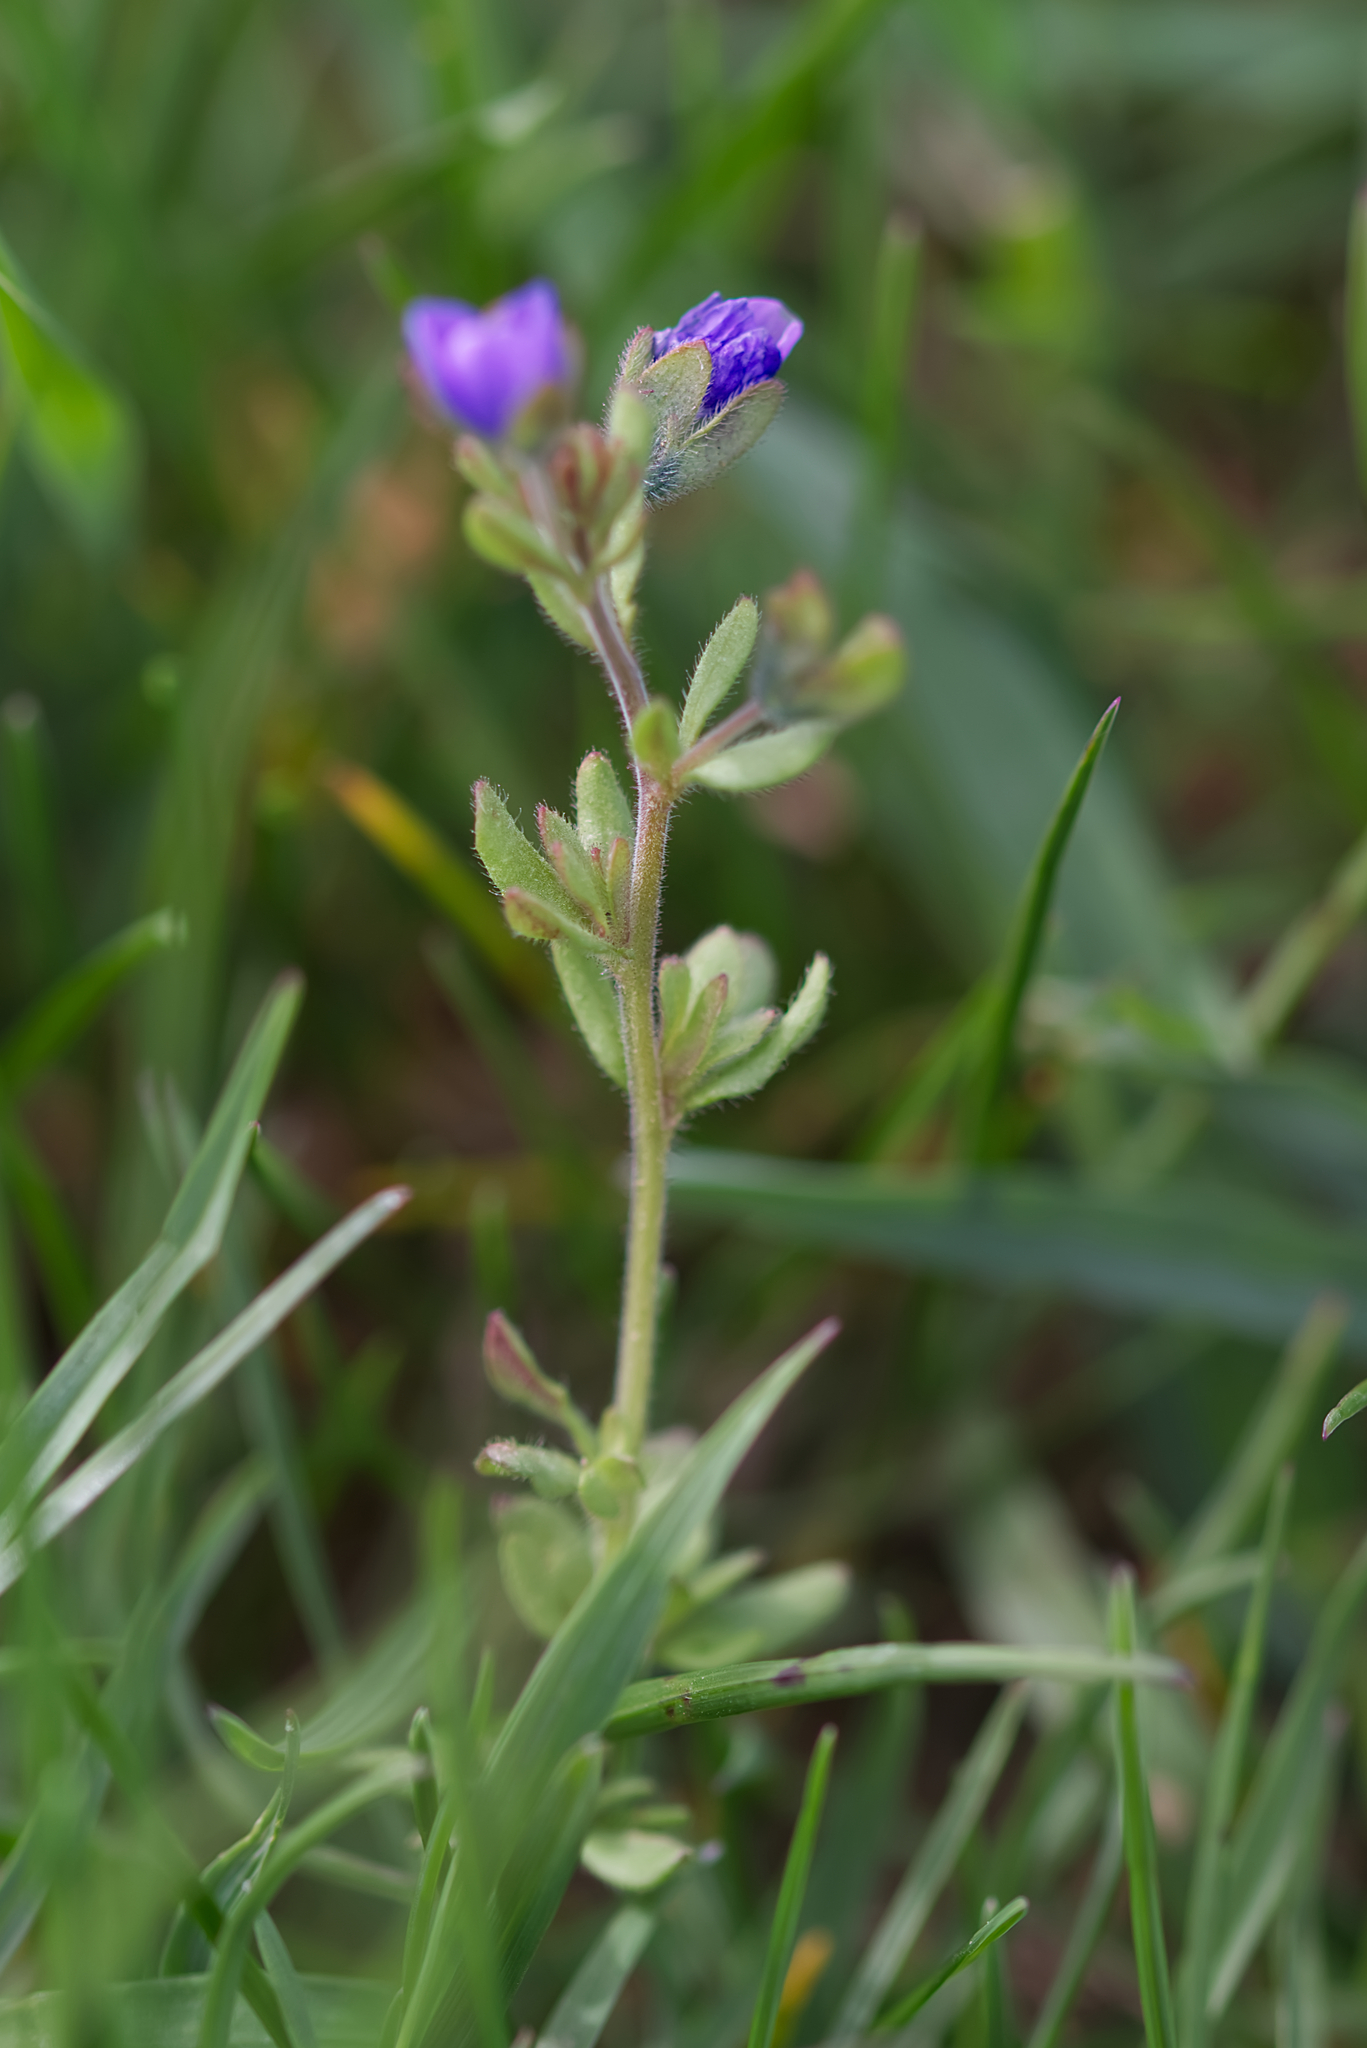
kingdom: Plantae
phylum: Tracheophyta
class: Magnoliopsida
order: Lamiales
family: Plantaginaceae
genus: Veronica
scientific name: Veronica triphyllos
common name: Fingered speedwell
